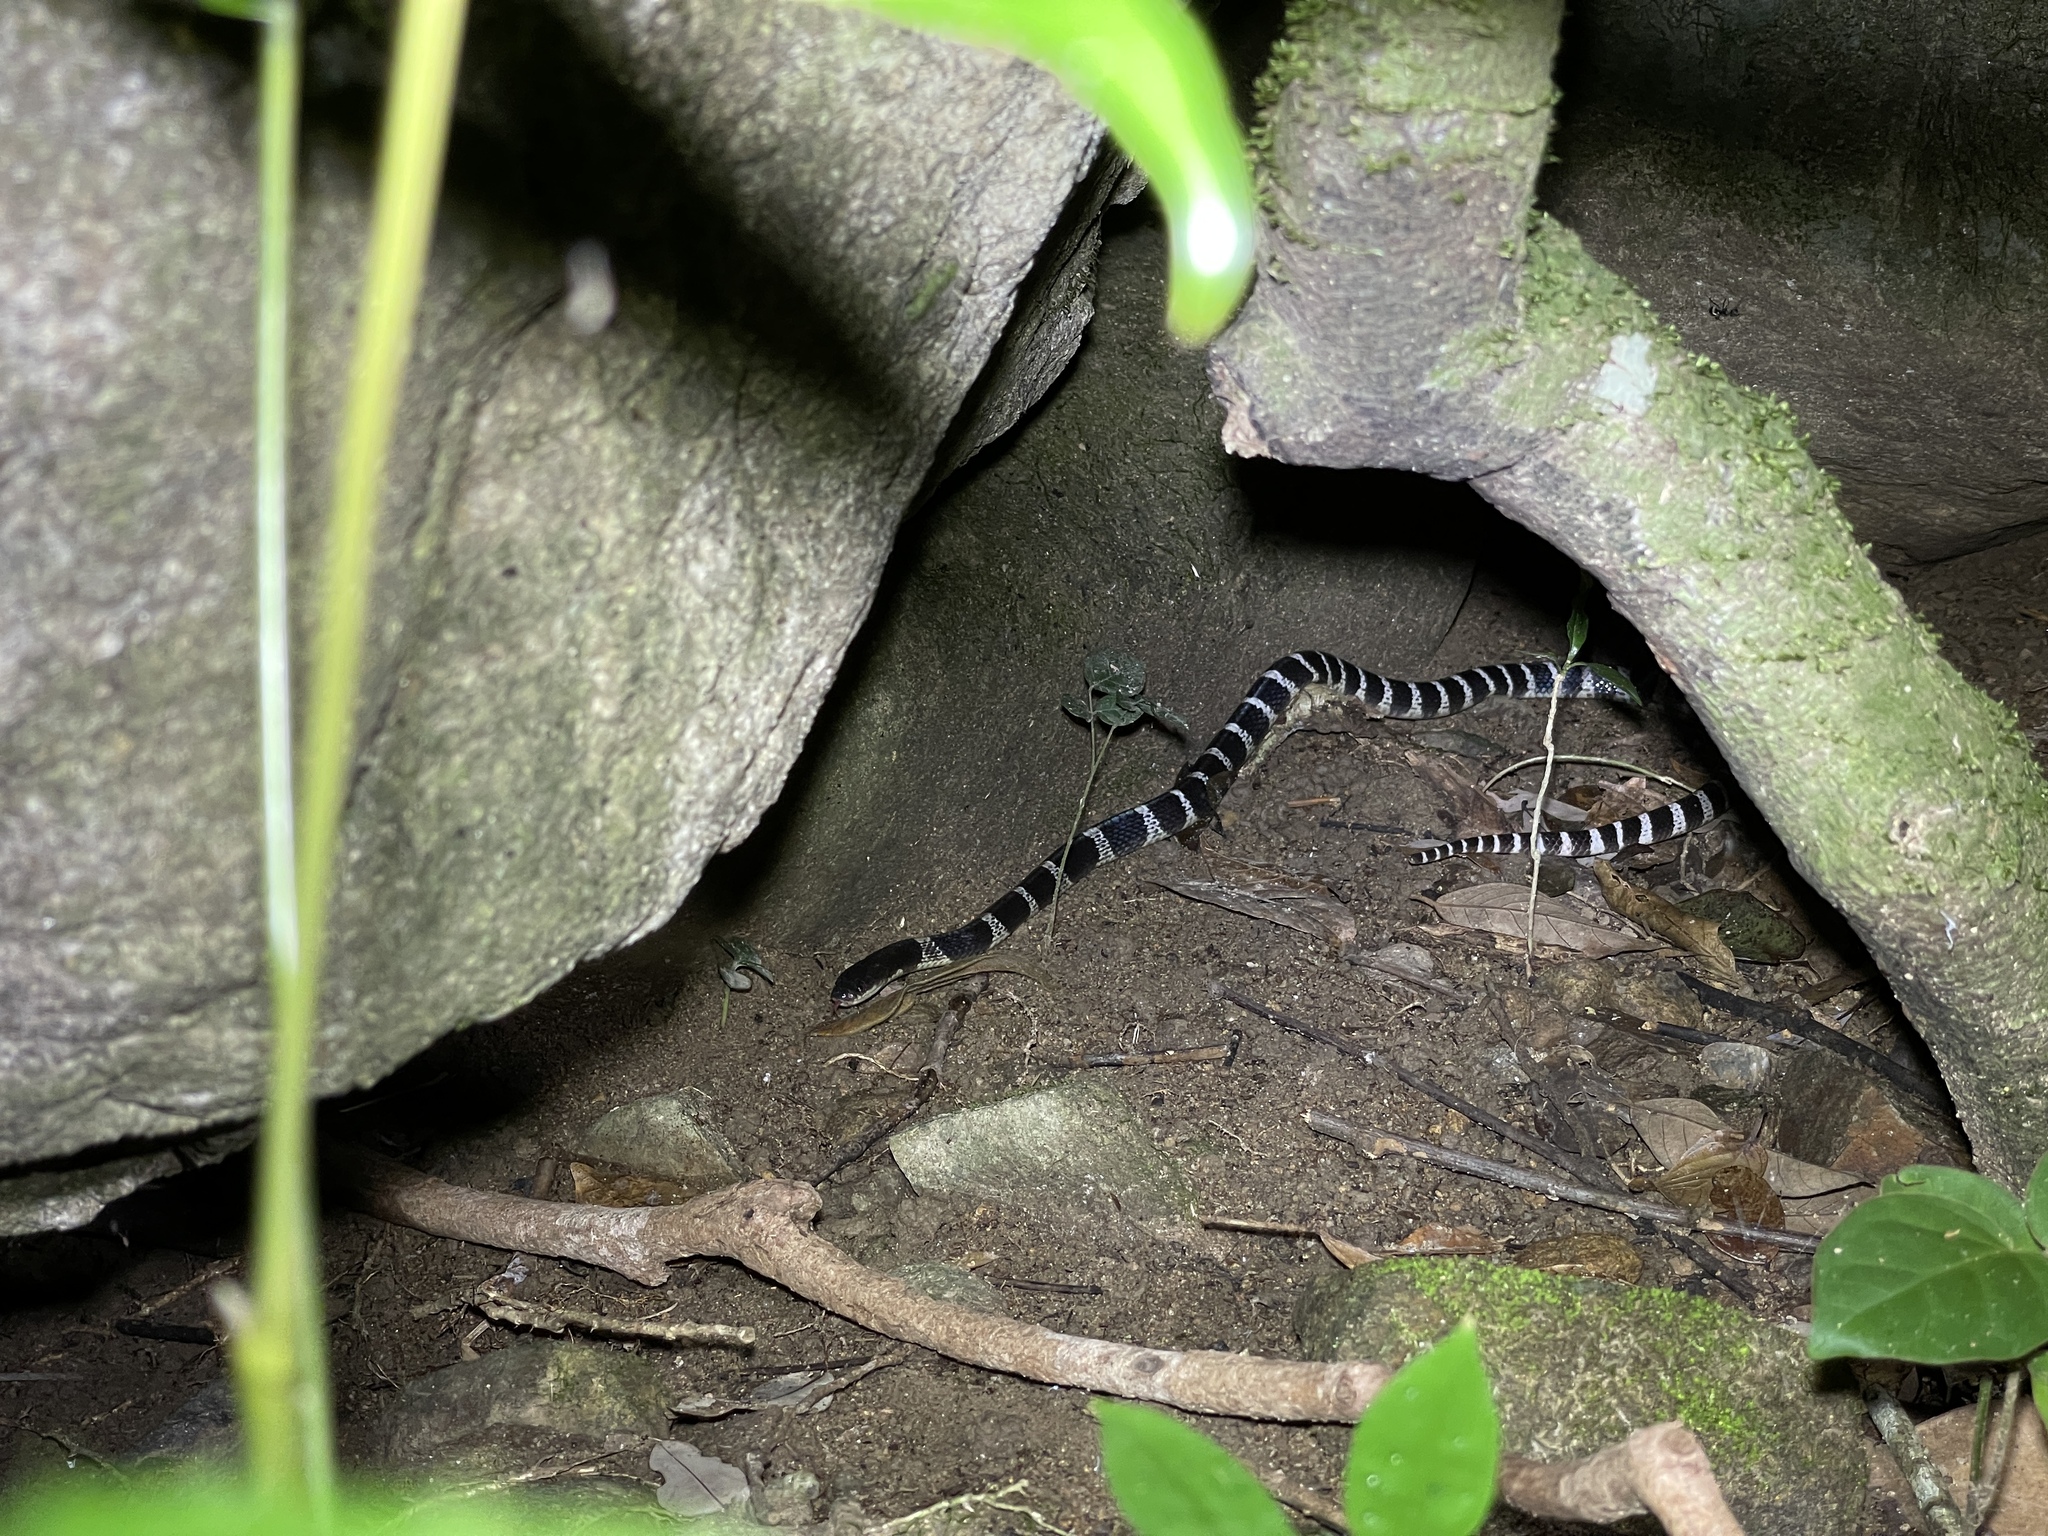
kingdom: Animalia
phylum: Chordata
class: Squamata
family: Elapidae
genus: Bungarus
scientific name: Bungarus multicinctus
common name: Many-banded krait
